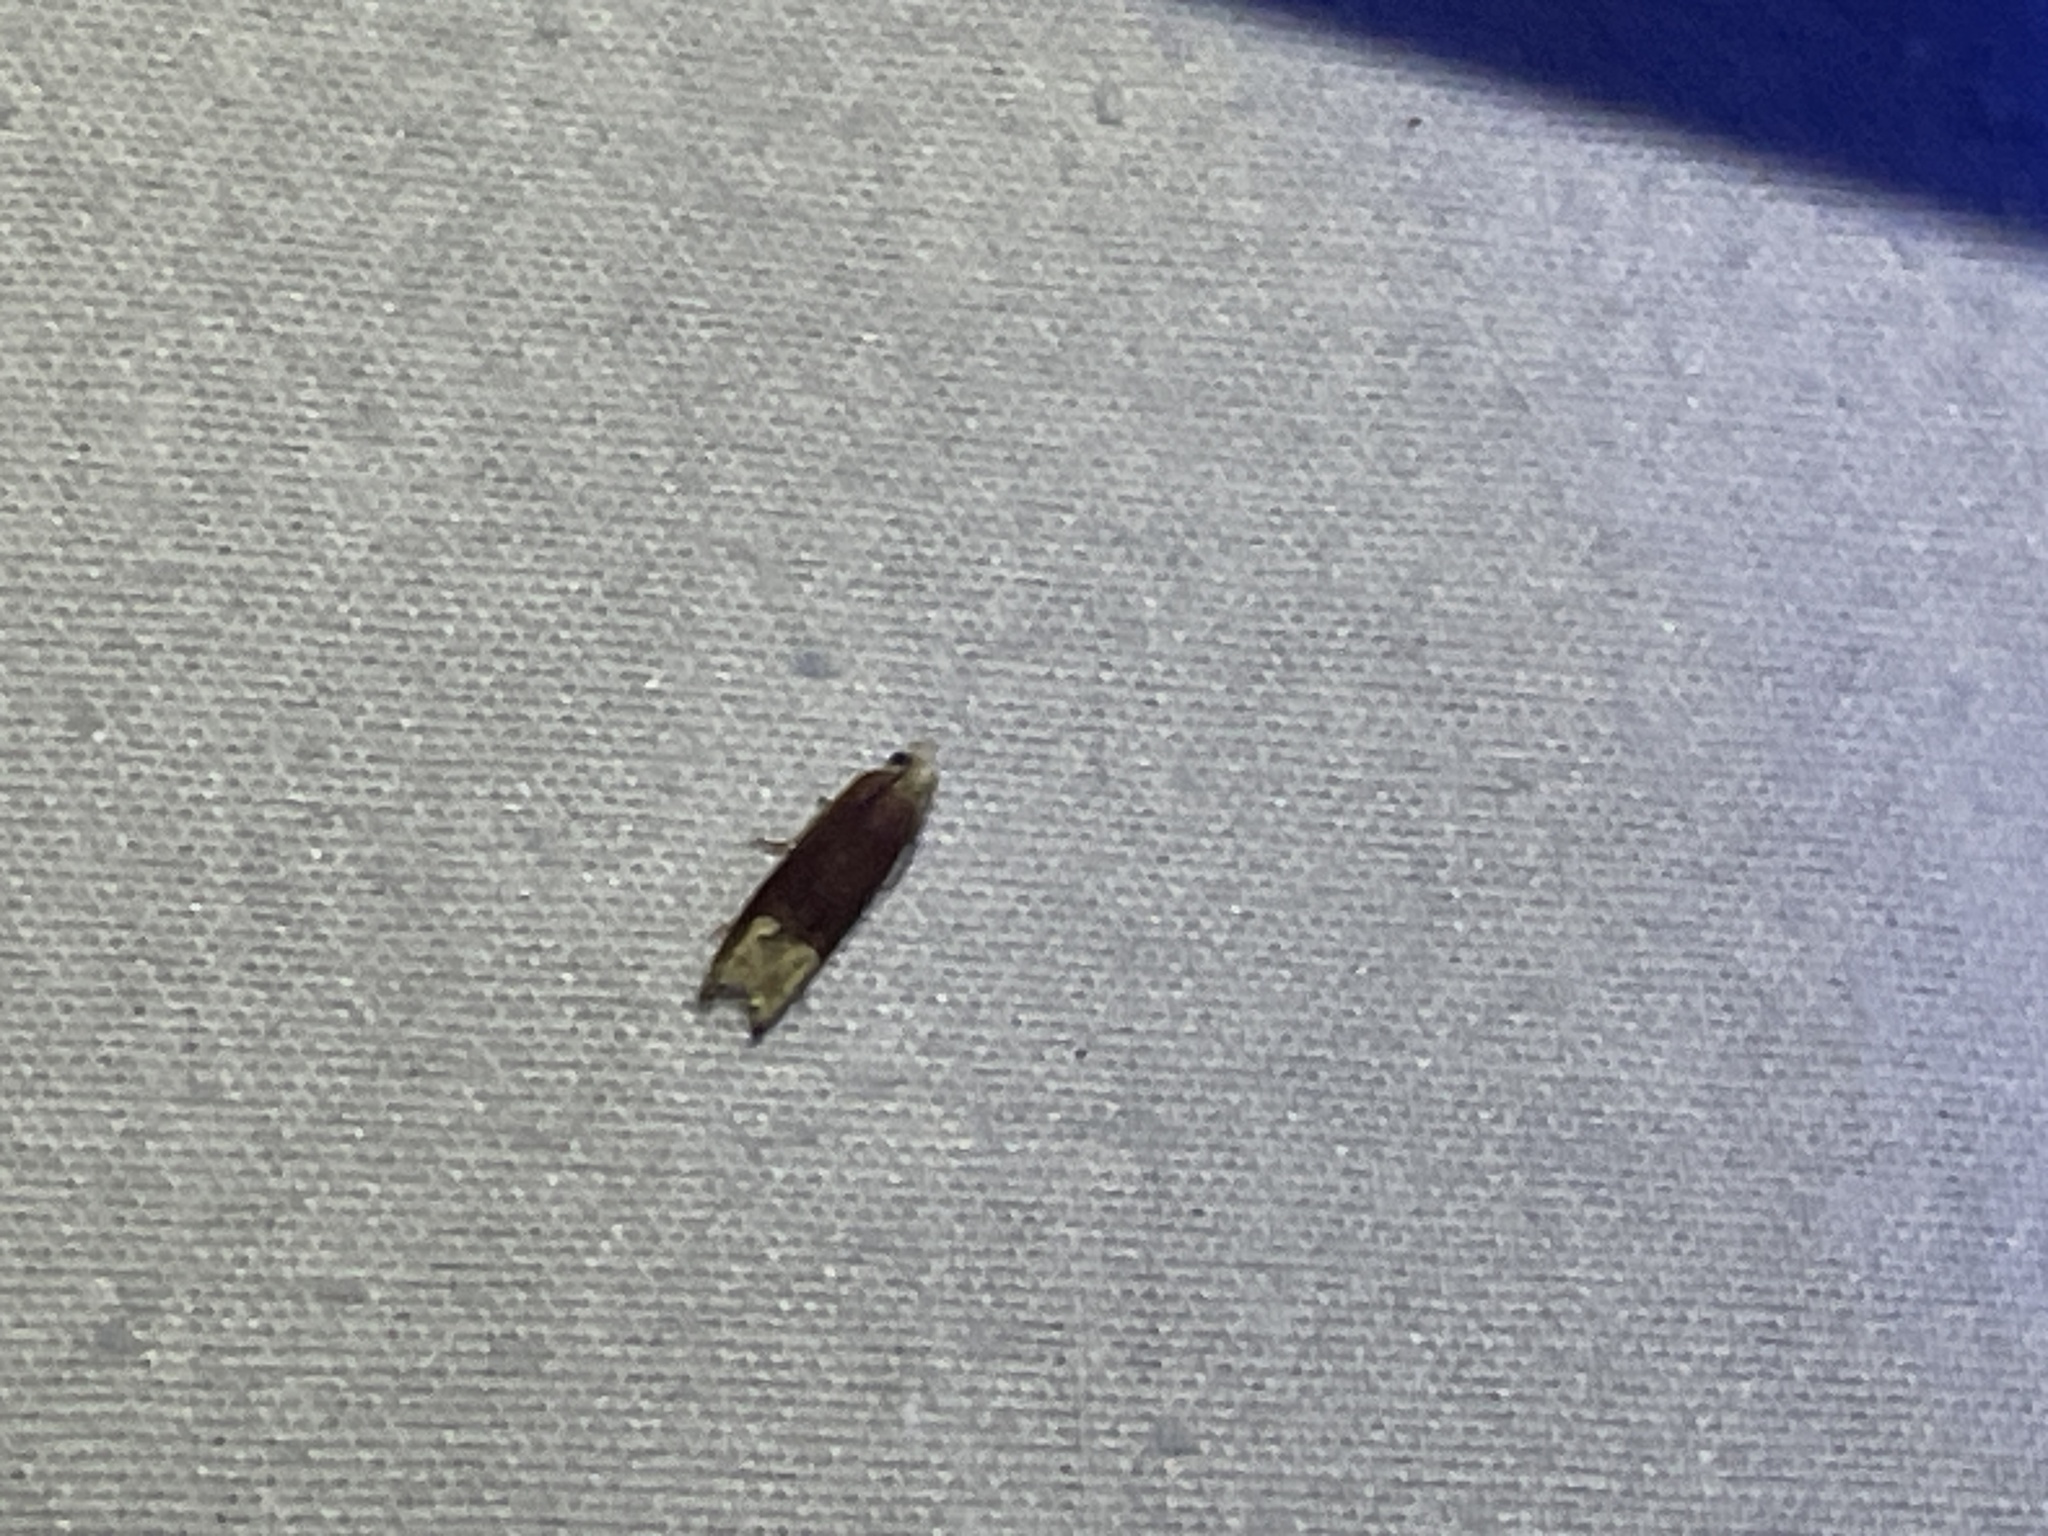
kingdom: Animalia
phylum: Arthropoda
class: Insecta
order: Lepidoptera
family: Tortricidae
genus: Eucosma
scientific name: Eucosma raracana
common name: Reddish eucosma moth
